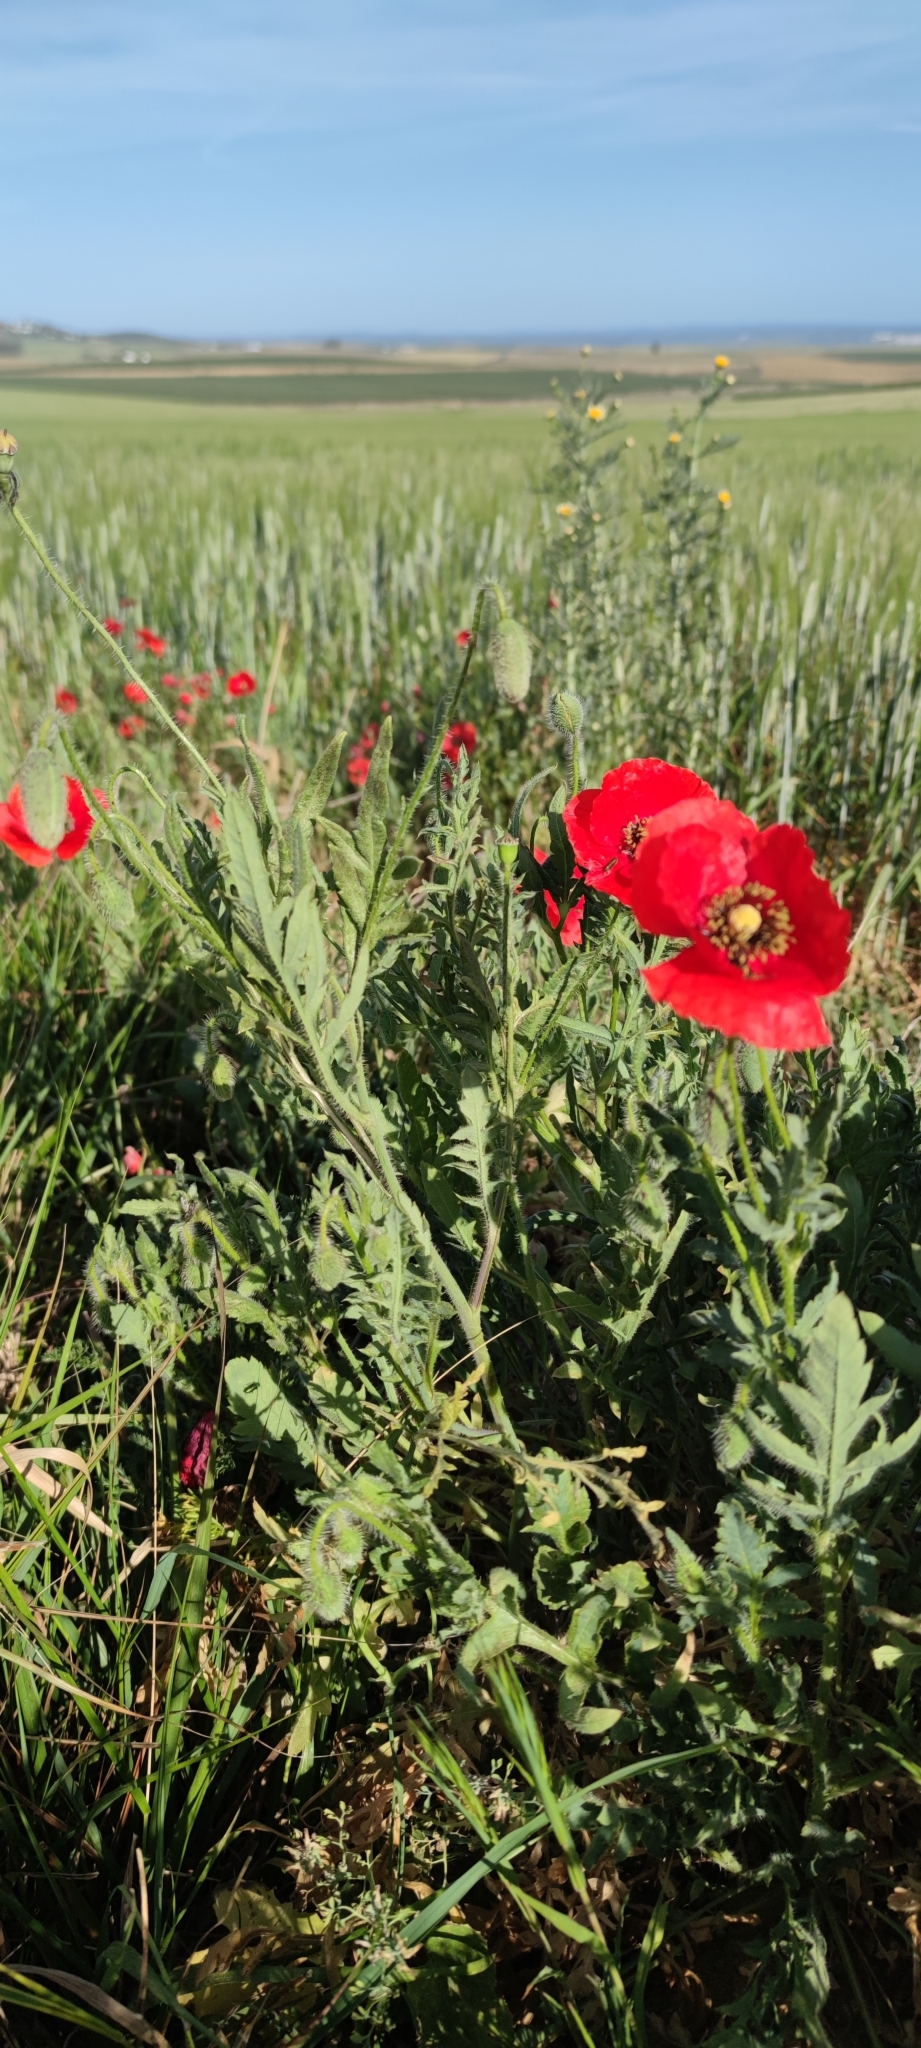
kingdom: Plantae
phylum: Tracheophyta
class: Magnoliopsida
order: Ranunculales
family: Papaveraceae
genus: Papaver
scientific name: Papaver rhoeas
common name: Corn poppy
